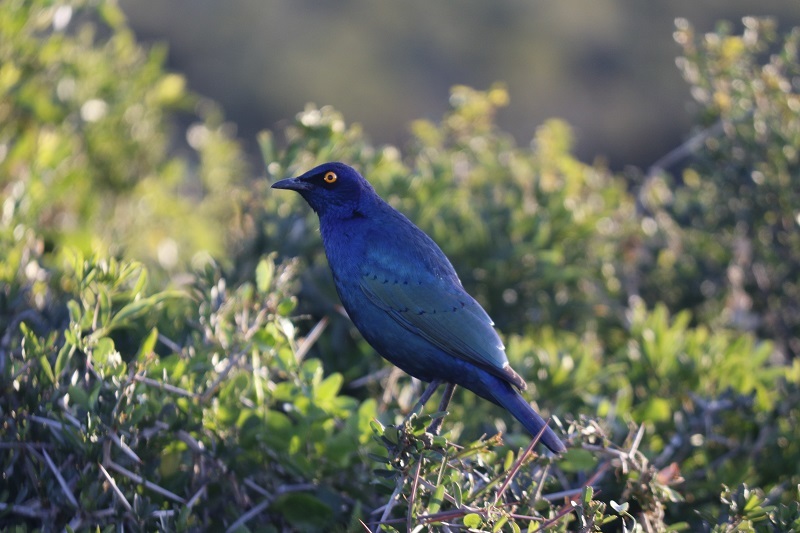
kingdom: Animalia
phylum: Chordata
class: Aves
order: Passeriformes
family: Sturnidae
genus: Lamprotornis
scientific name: Lamprotornis nitens
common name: Cape starling
